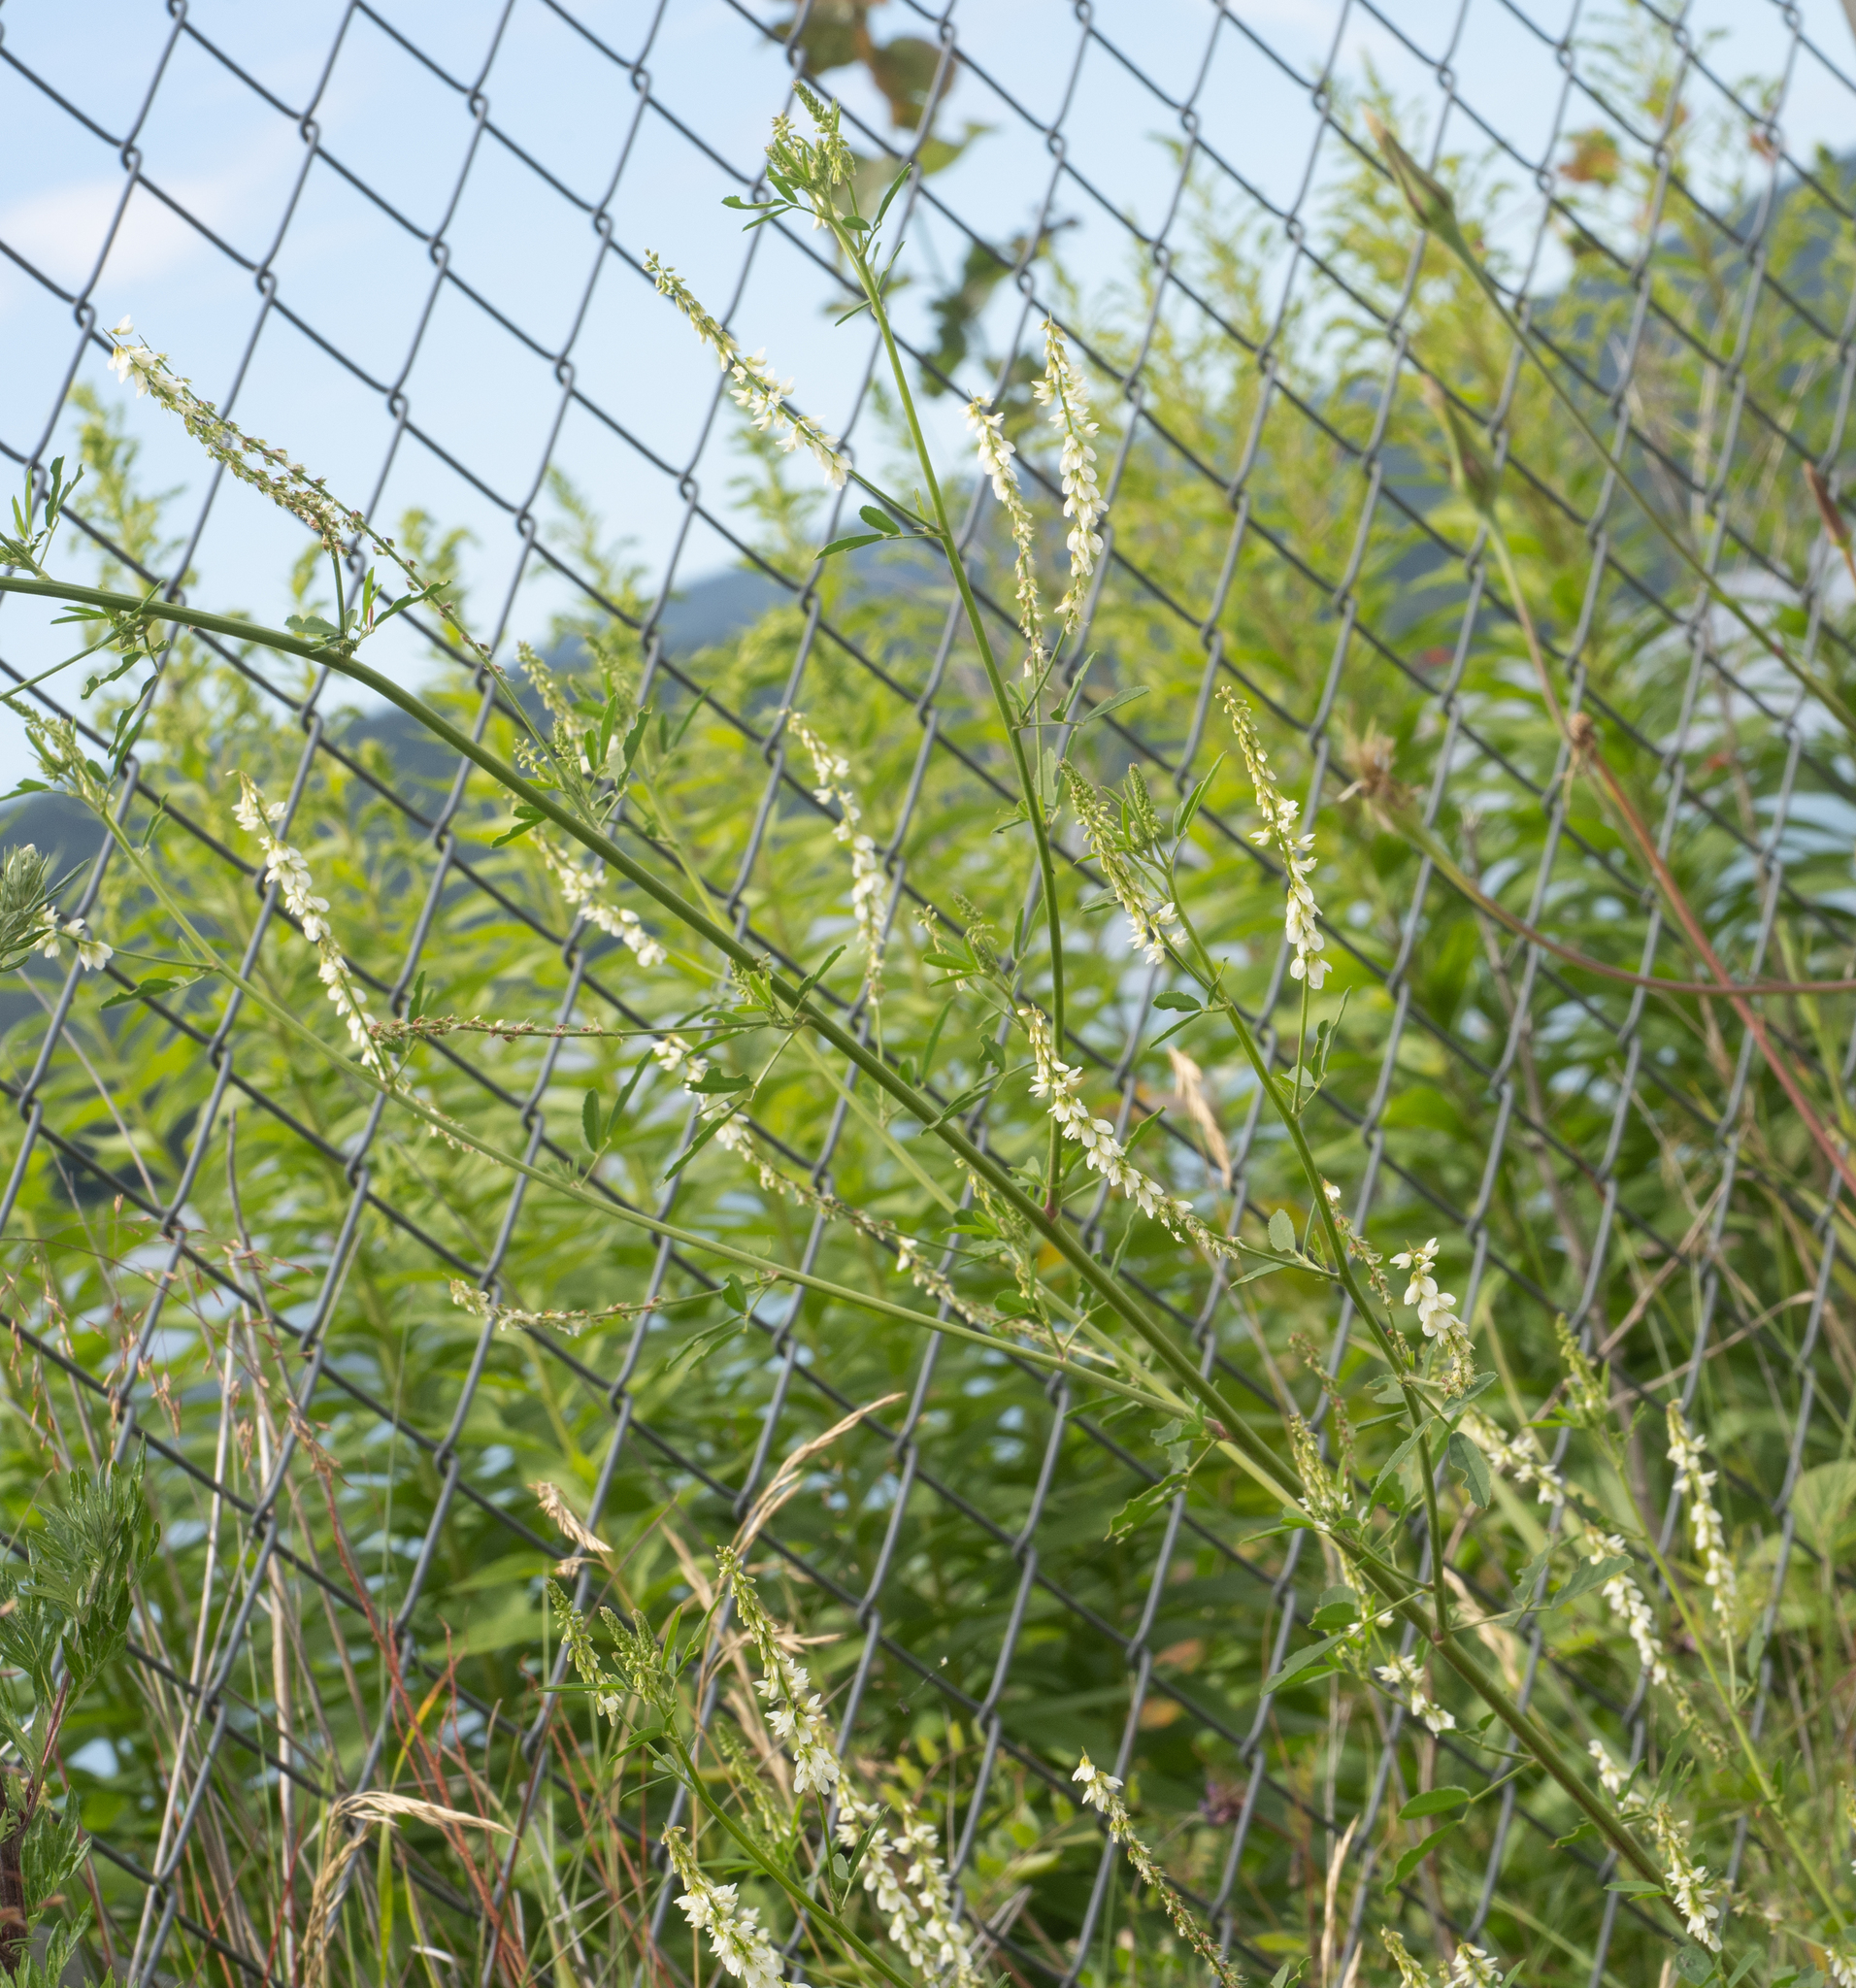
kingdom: Plantae
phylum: Tracheophyta
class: Magnoliopsida
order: Fabales
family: Fabaceae
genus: Melilotus
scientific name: Melilotus albus
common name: White melilot
